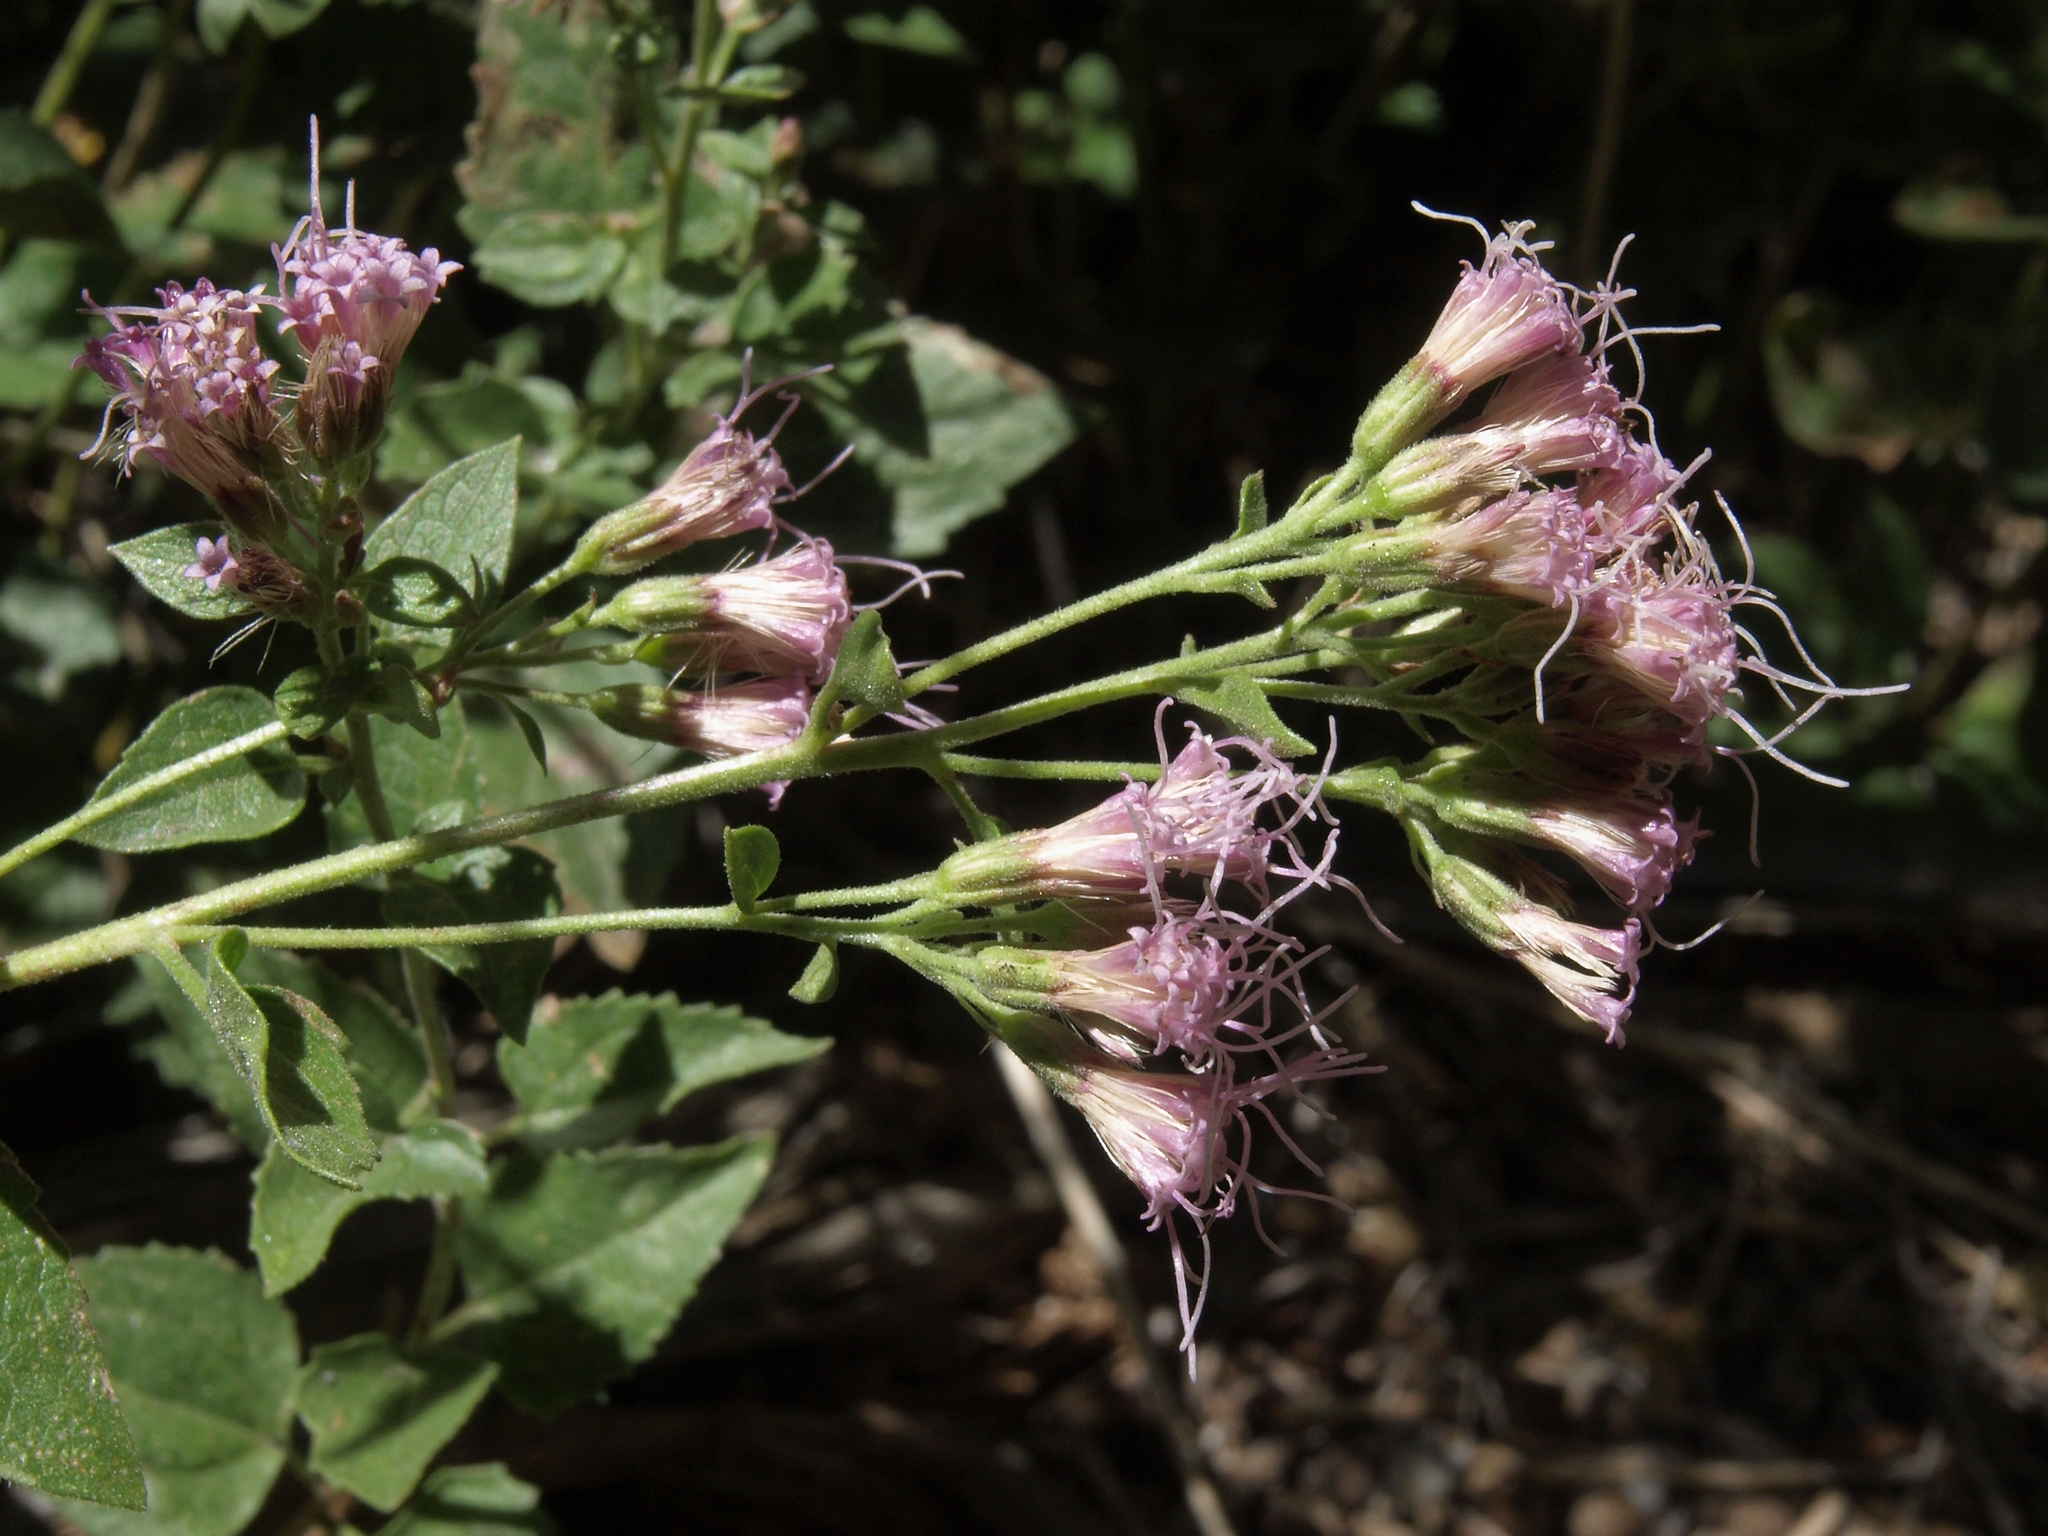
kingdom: Plantae
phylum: Tracheophyta
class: Magnoliopsida
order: Asterales
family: Asteraceae
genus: Ageratina
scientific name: Ageratina occidentalis
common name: Western snakeroot
